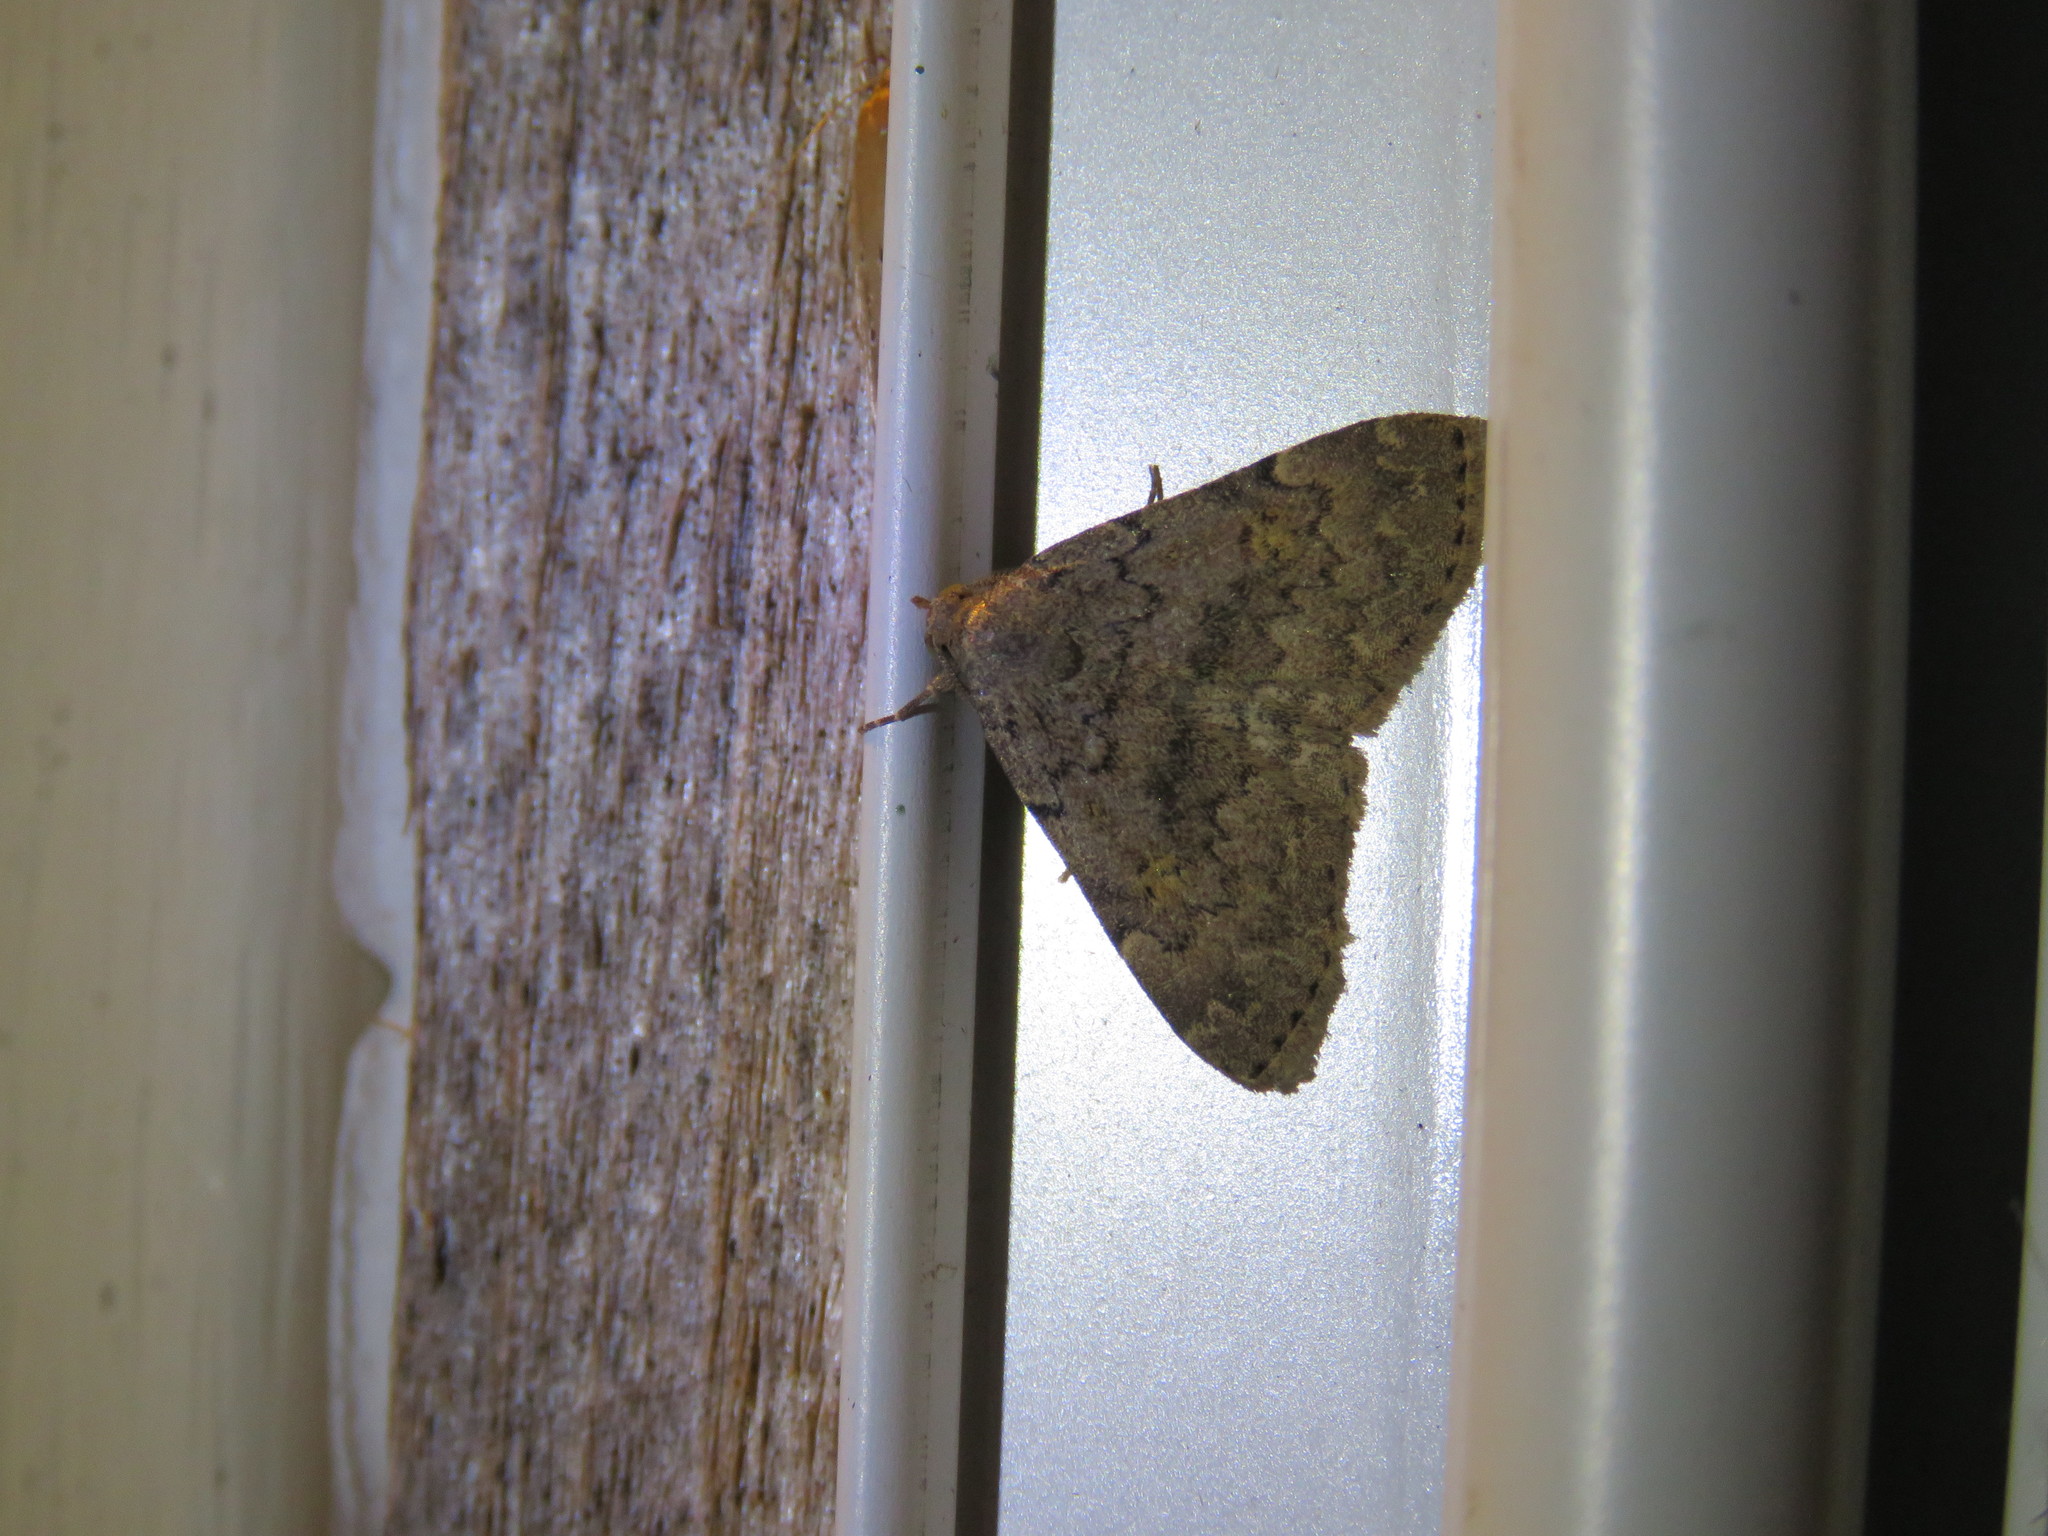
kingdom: Animalia
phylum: Arthropoda
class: Insecta
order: Lepidoptera
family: Erebidae
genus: Idia
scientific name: Idia aemula
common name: Common idia moth
